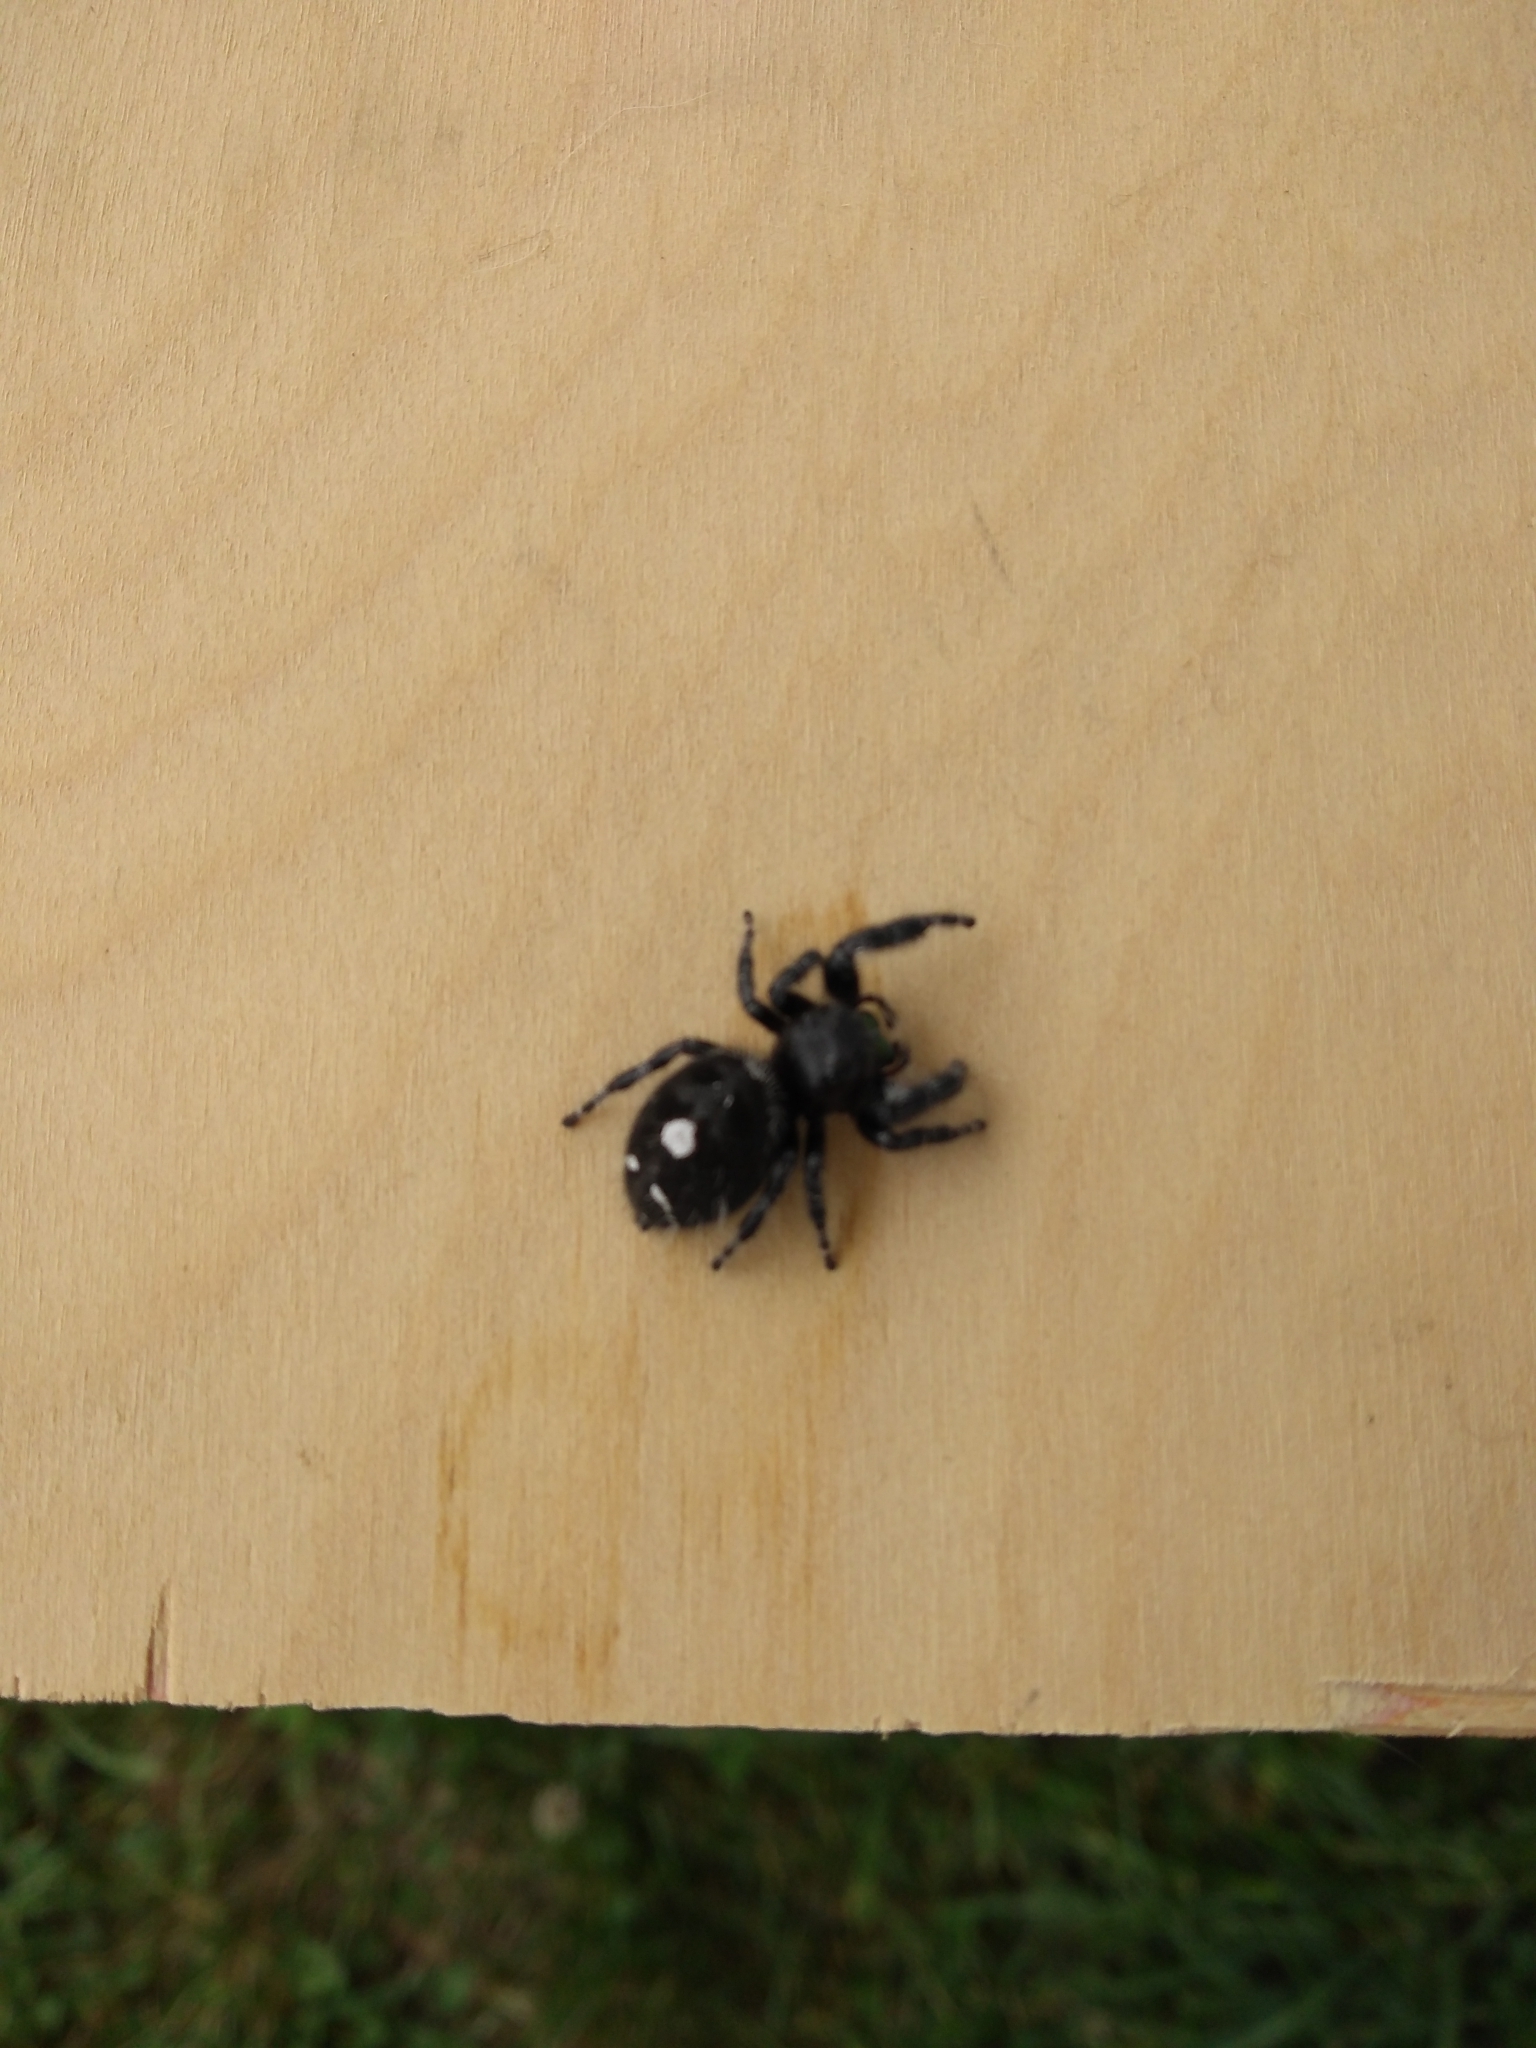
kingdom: Animalia
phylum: Arthropoda
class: Arachnida
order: Araneae
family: Salticidae
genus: Phidippus
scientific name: Phidippus audax
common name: Bold jumper
